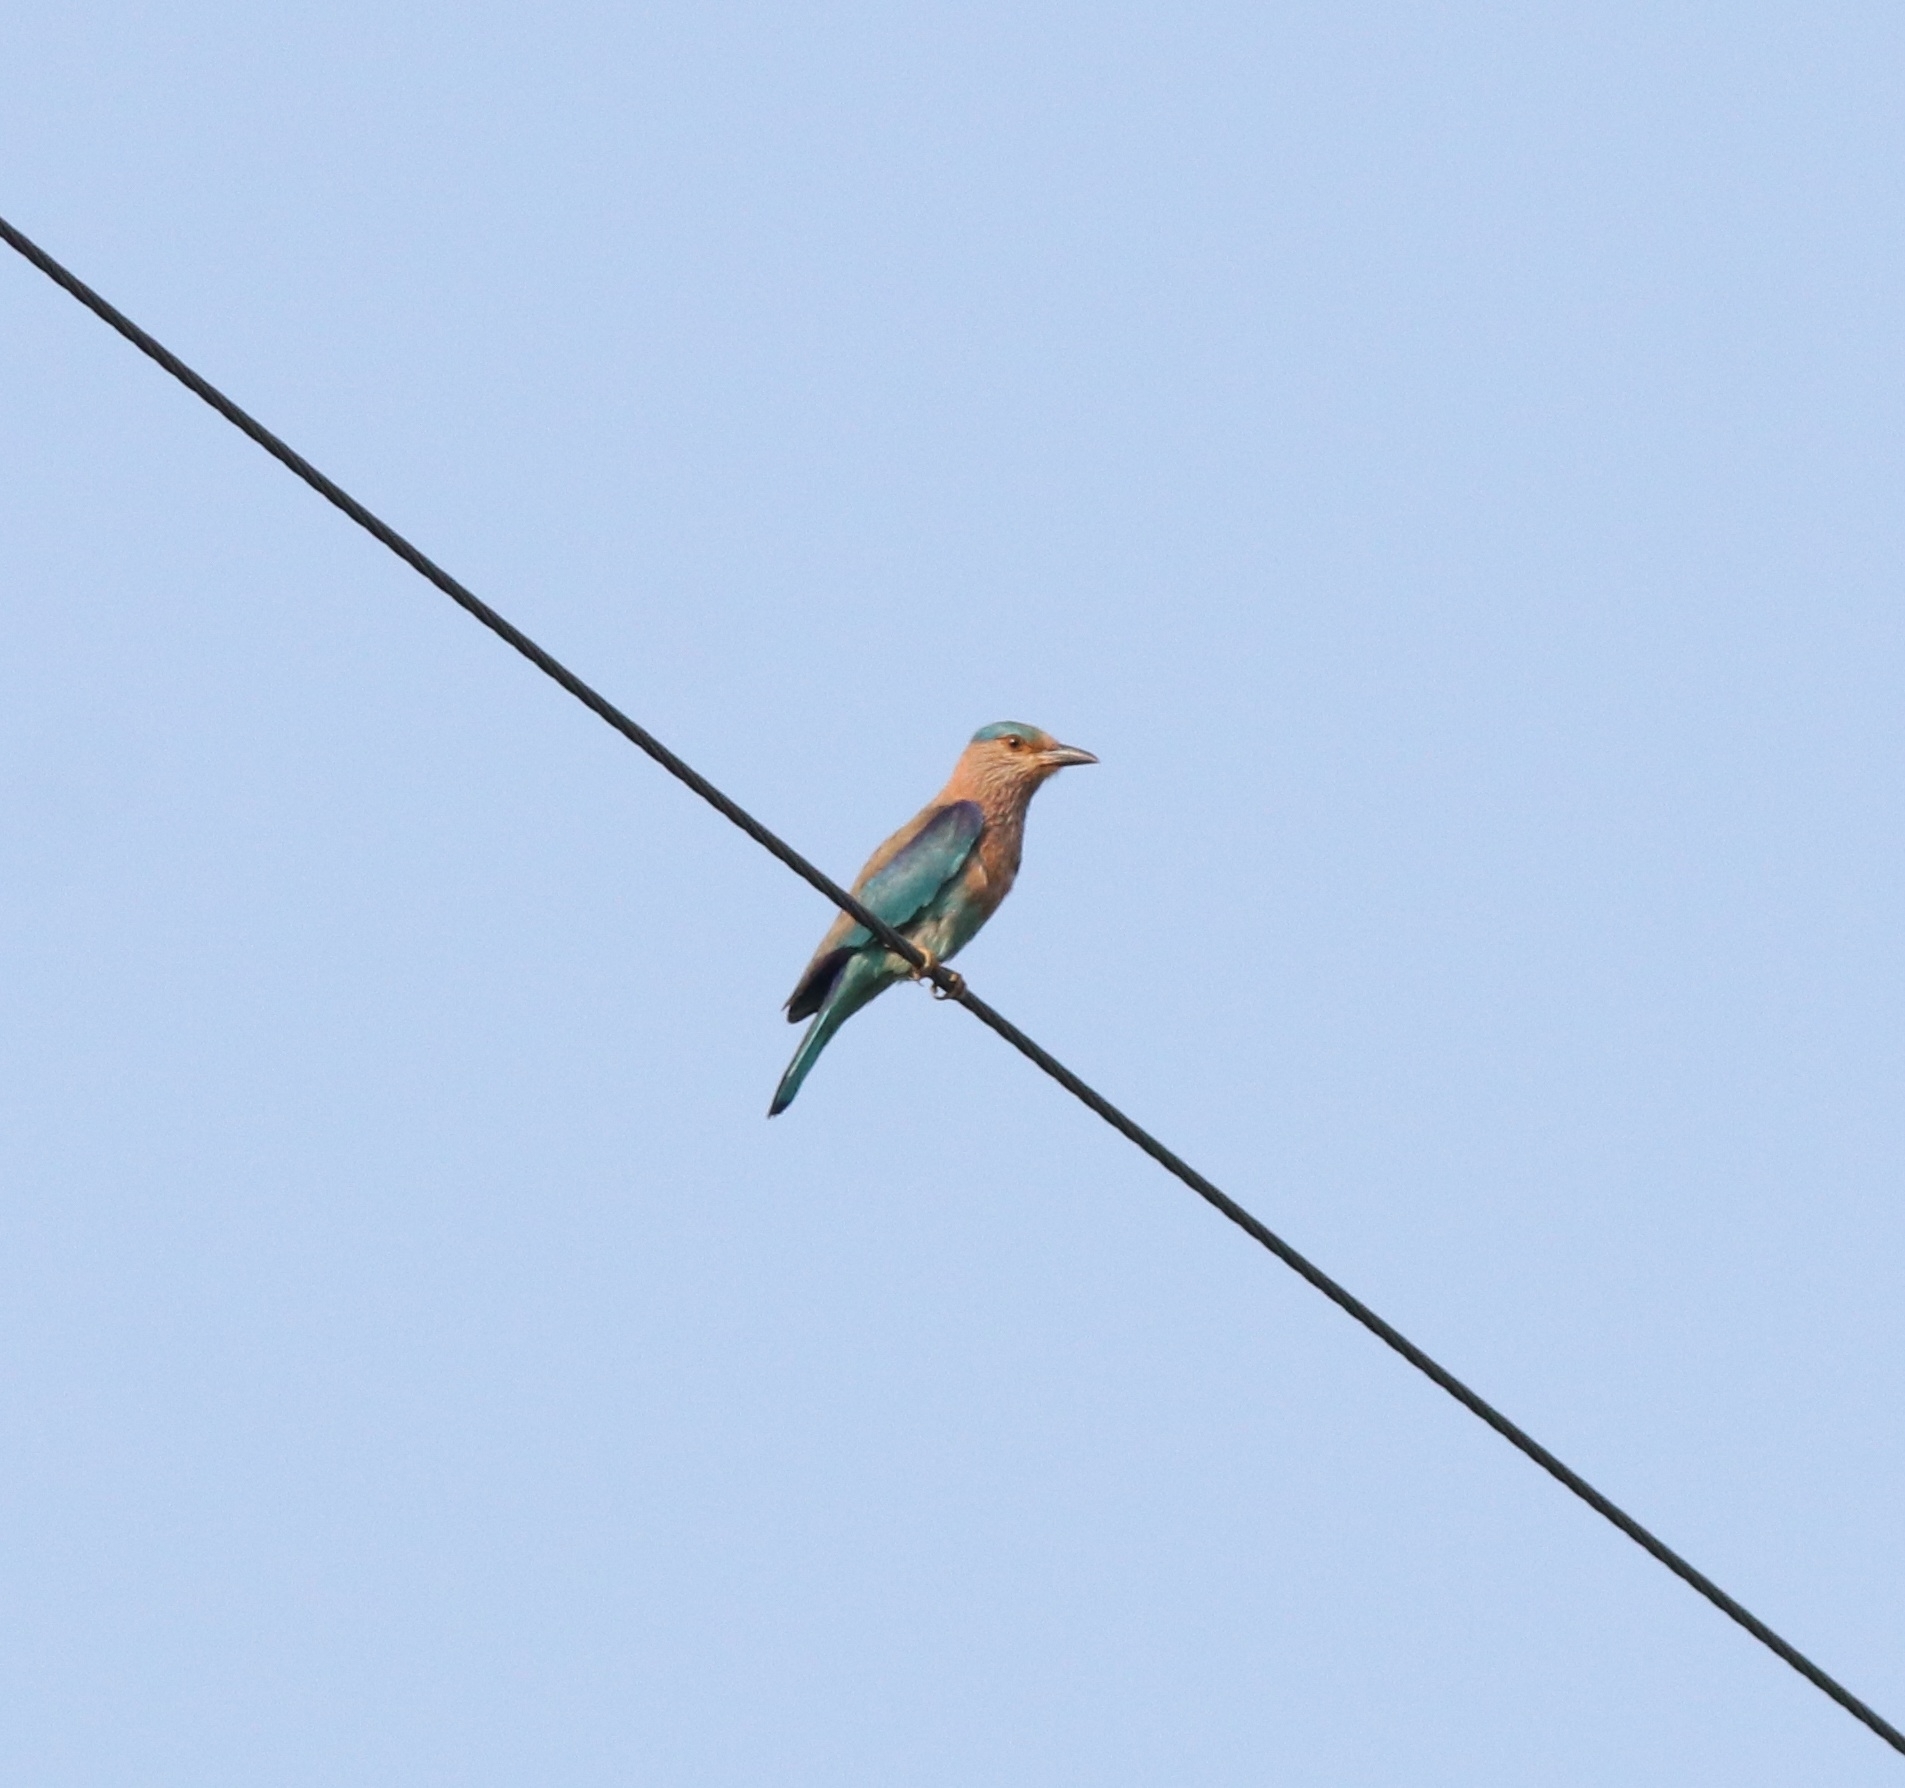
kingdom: Animalia
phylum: Chordata
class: Aves
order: Coraciiformes
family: Coraciidae
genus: Coracias
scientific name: Coracias benghalensis
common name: Indian roller
